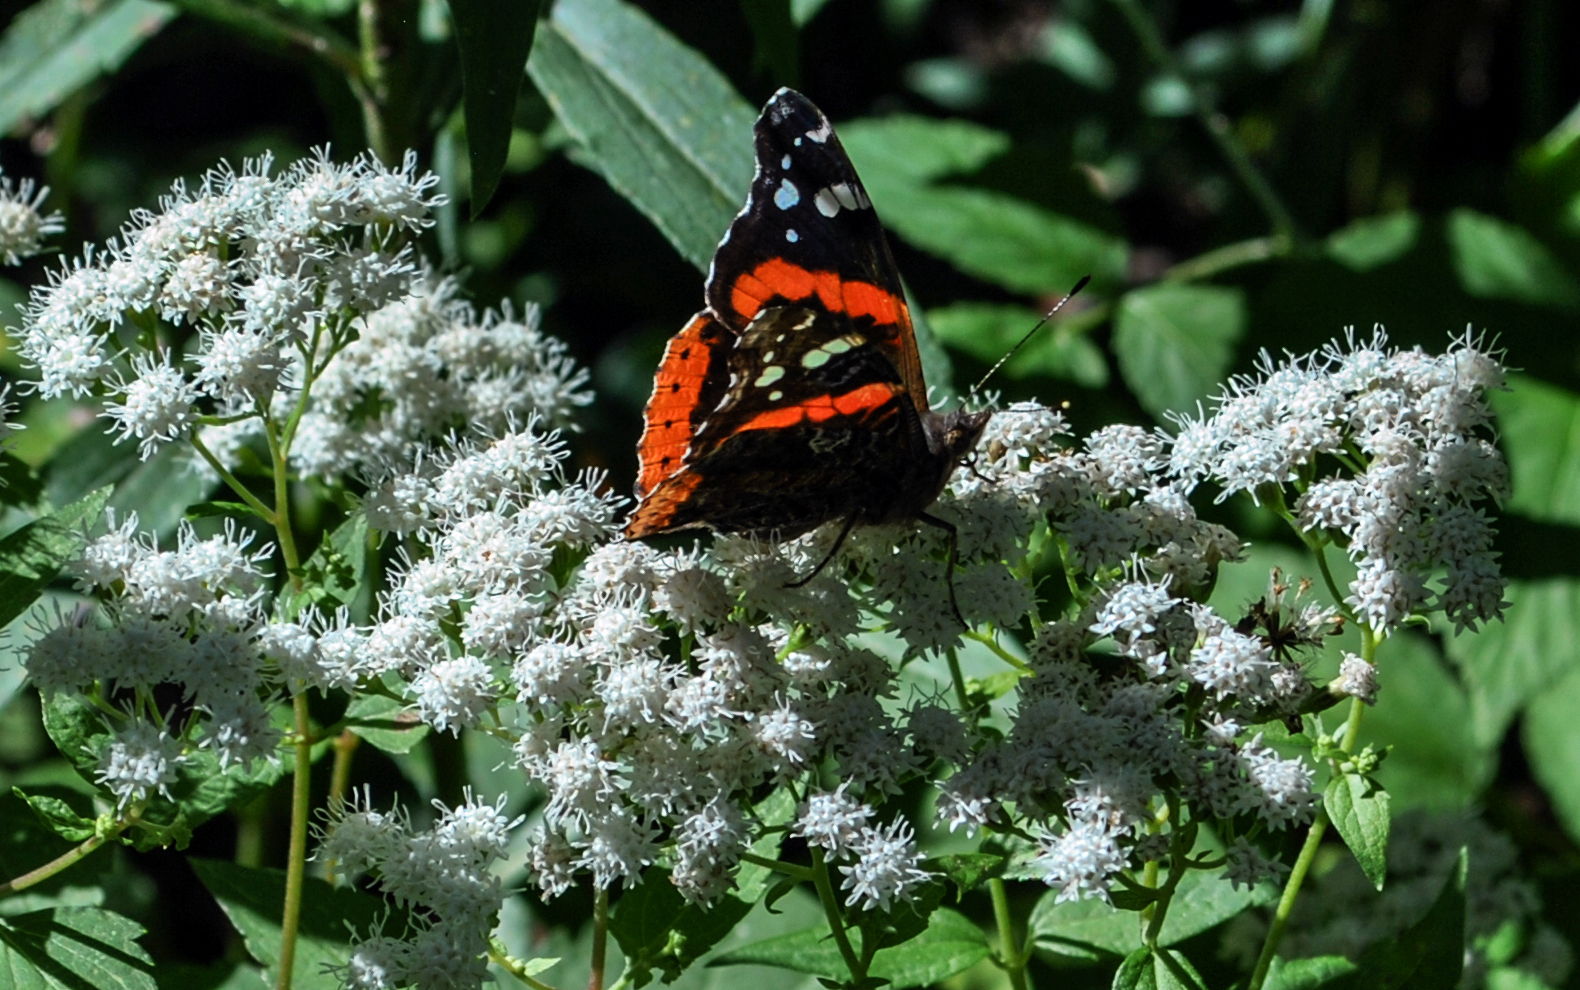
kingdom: Animalia
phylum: Arthropoda
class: Insecta
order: Lepidoptera
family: Nymphalidae
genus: Vanessa
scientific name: Vanessa atalanta
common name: Red admiral
